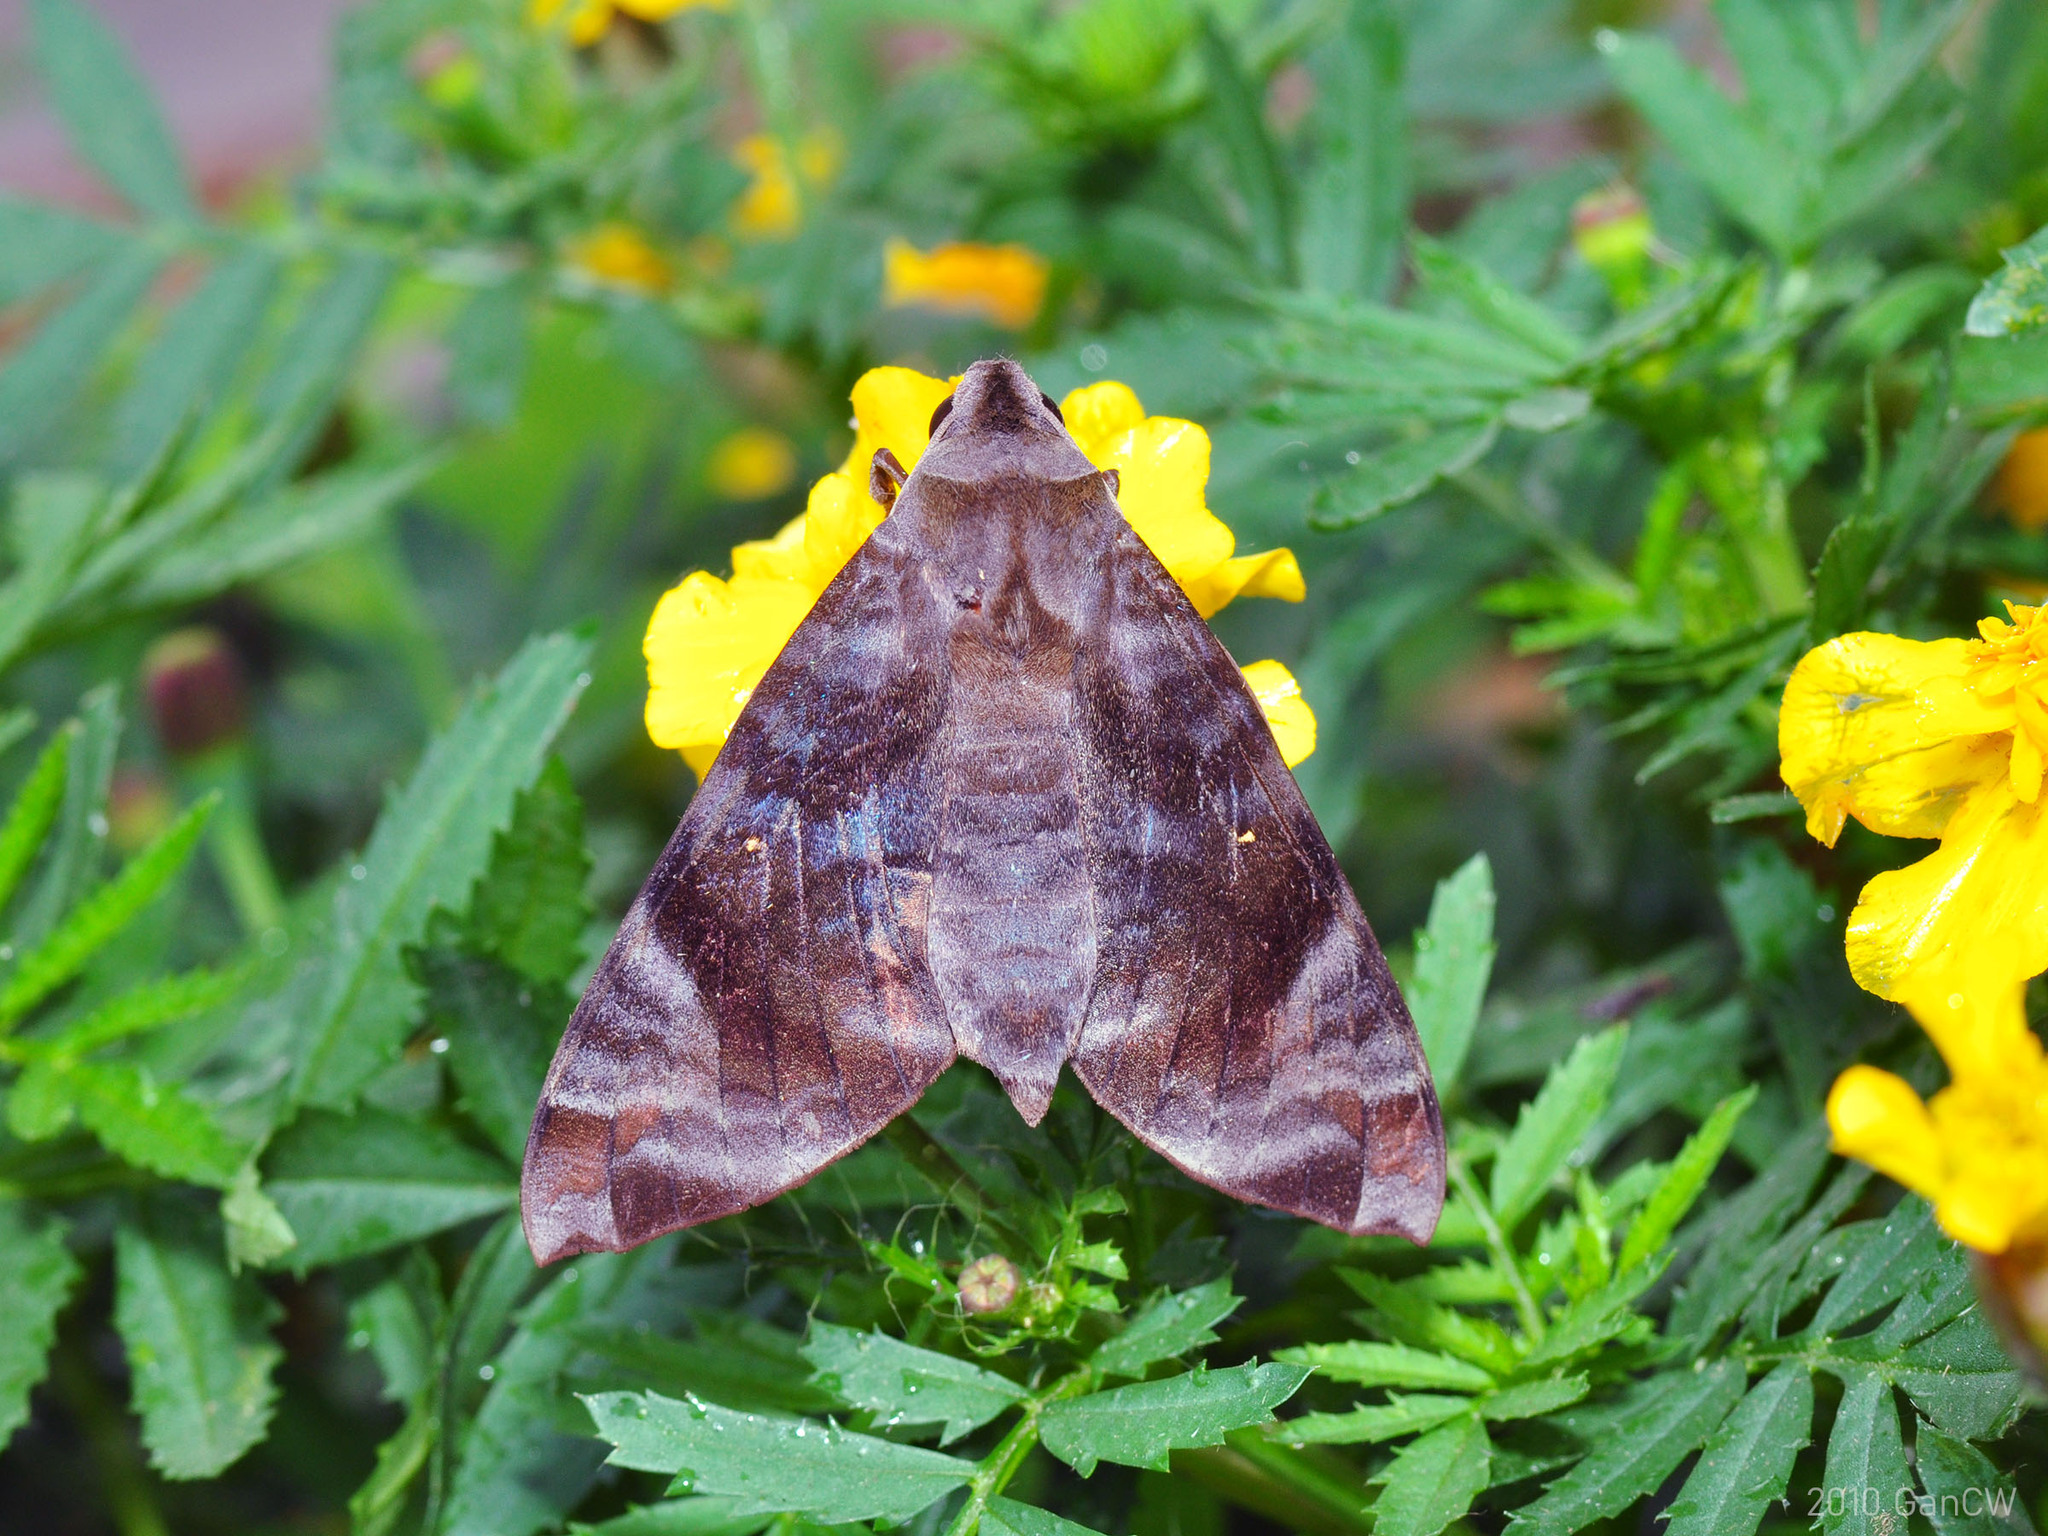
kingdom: Animalia
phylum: Arthropoda
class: Insecta
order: Lepidoptera
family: Sphingidae
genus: Acosmeryx
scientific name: Acosmeryx pseudonaga
